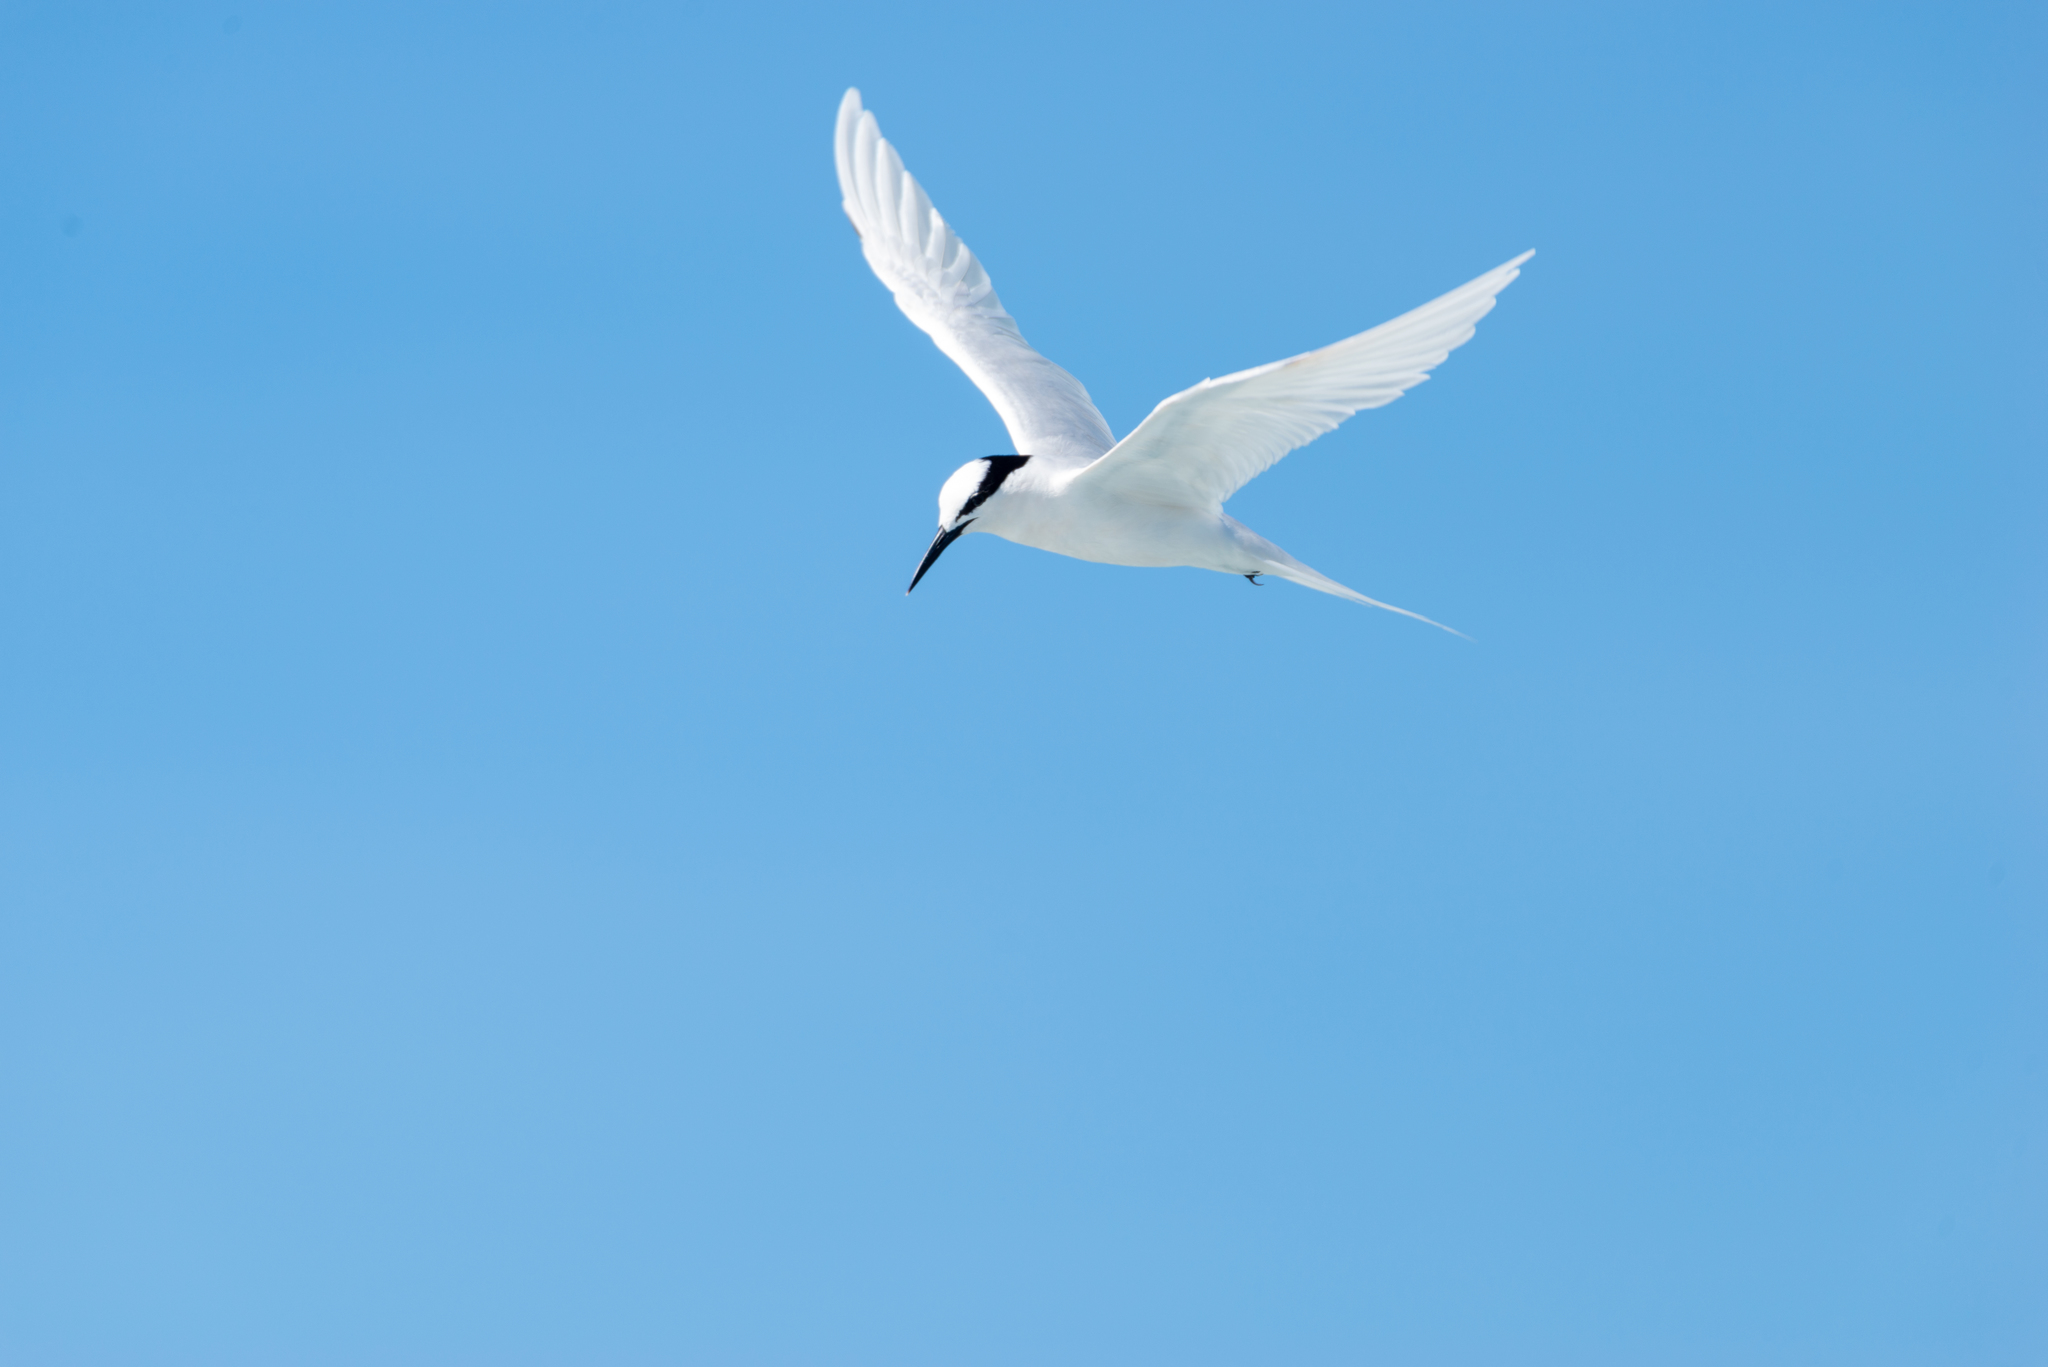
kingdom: Animalia
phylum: Chordata
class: Aves
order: Charadriiformes
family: Laridae
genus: Sterna
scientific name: Sterna sumatrana
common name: Black-naped tern
